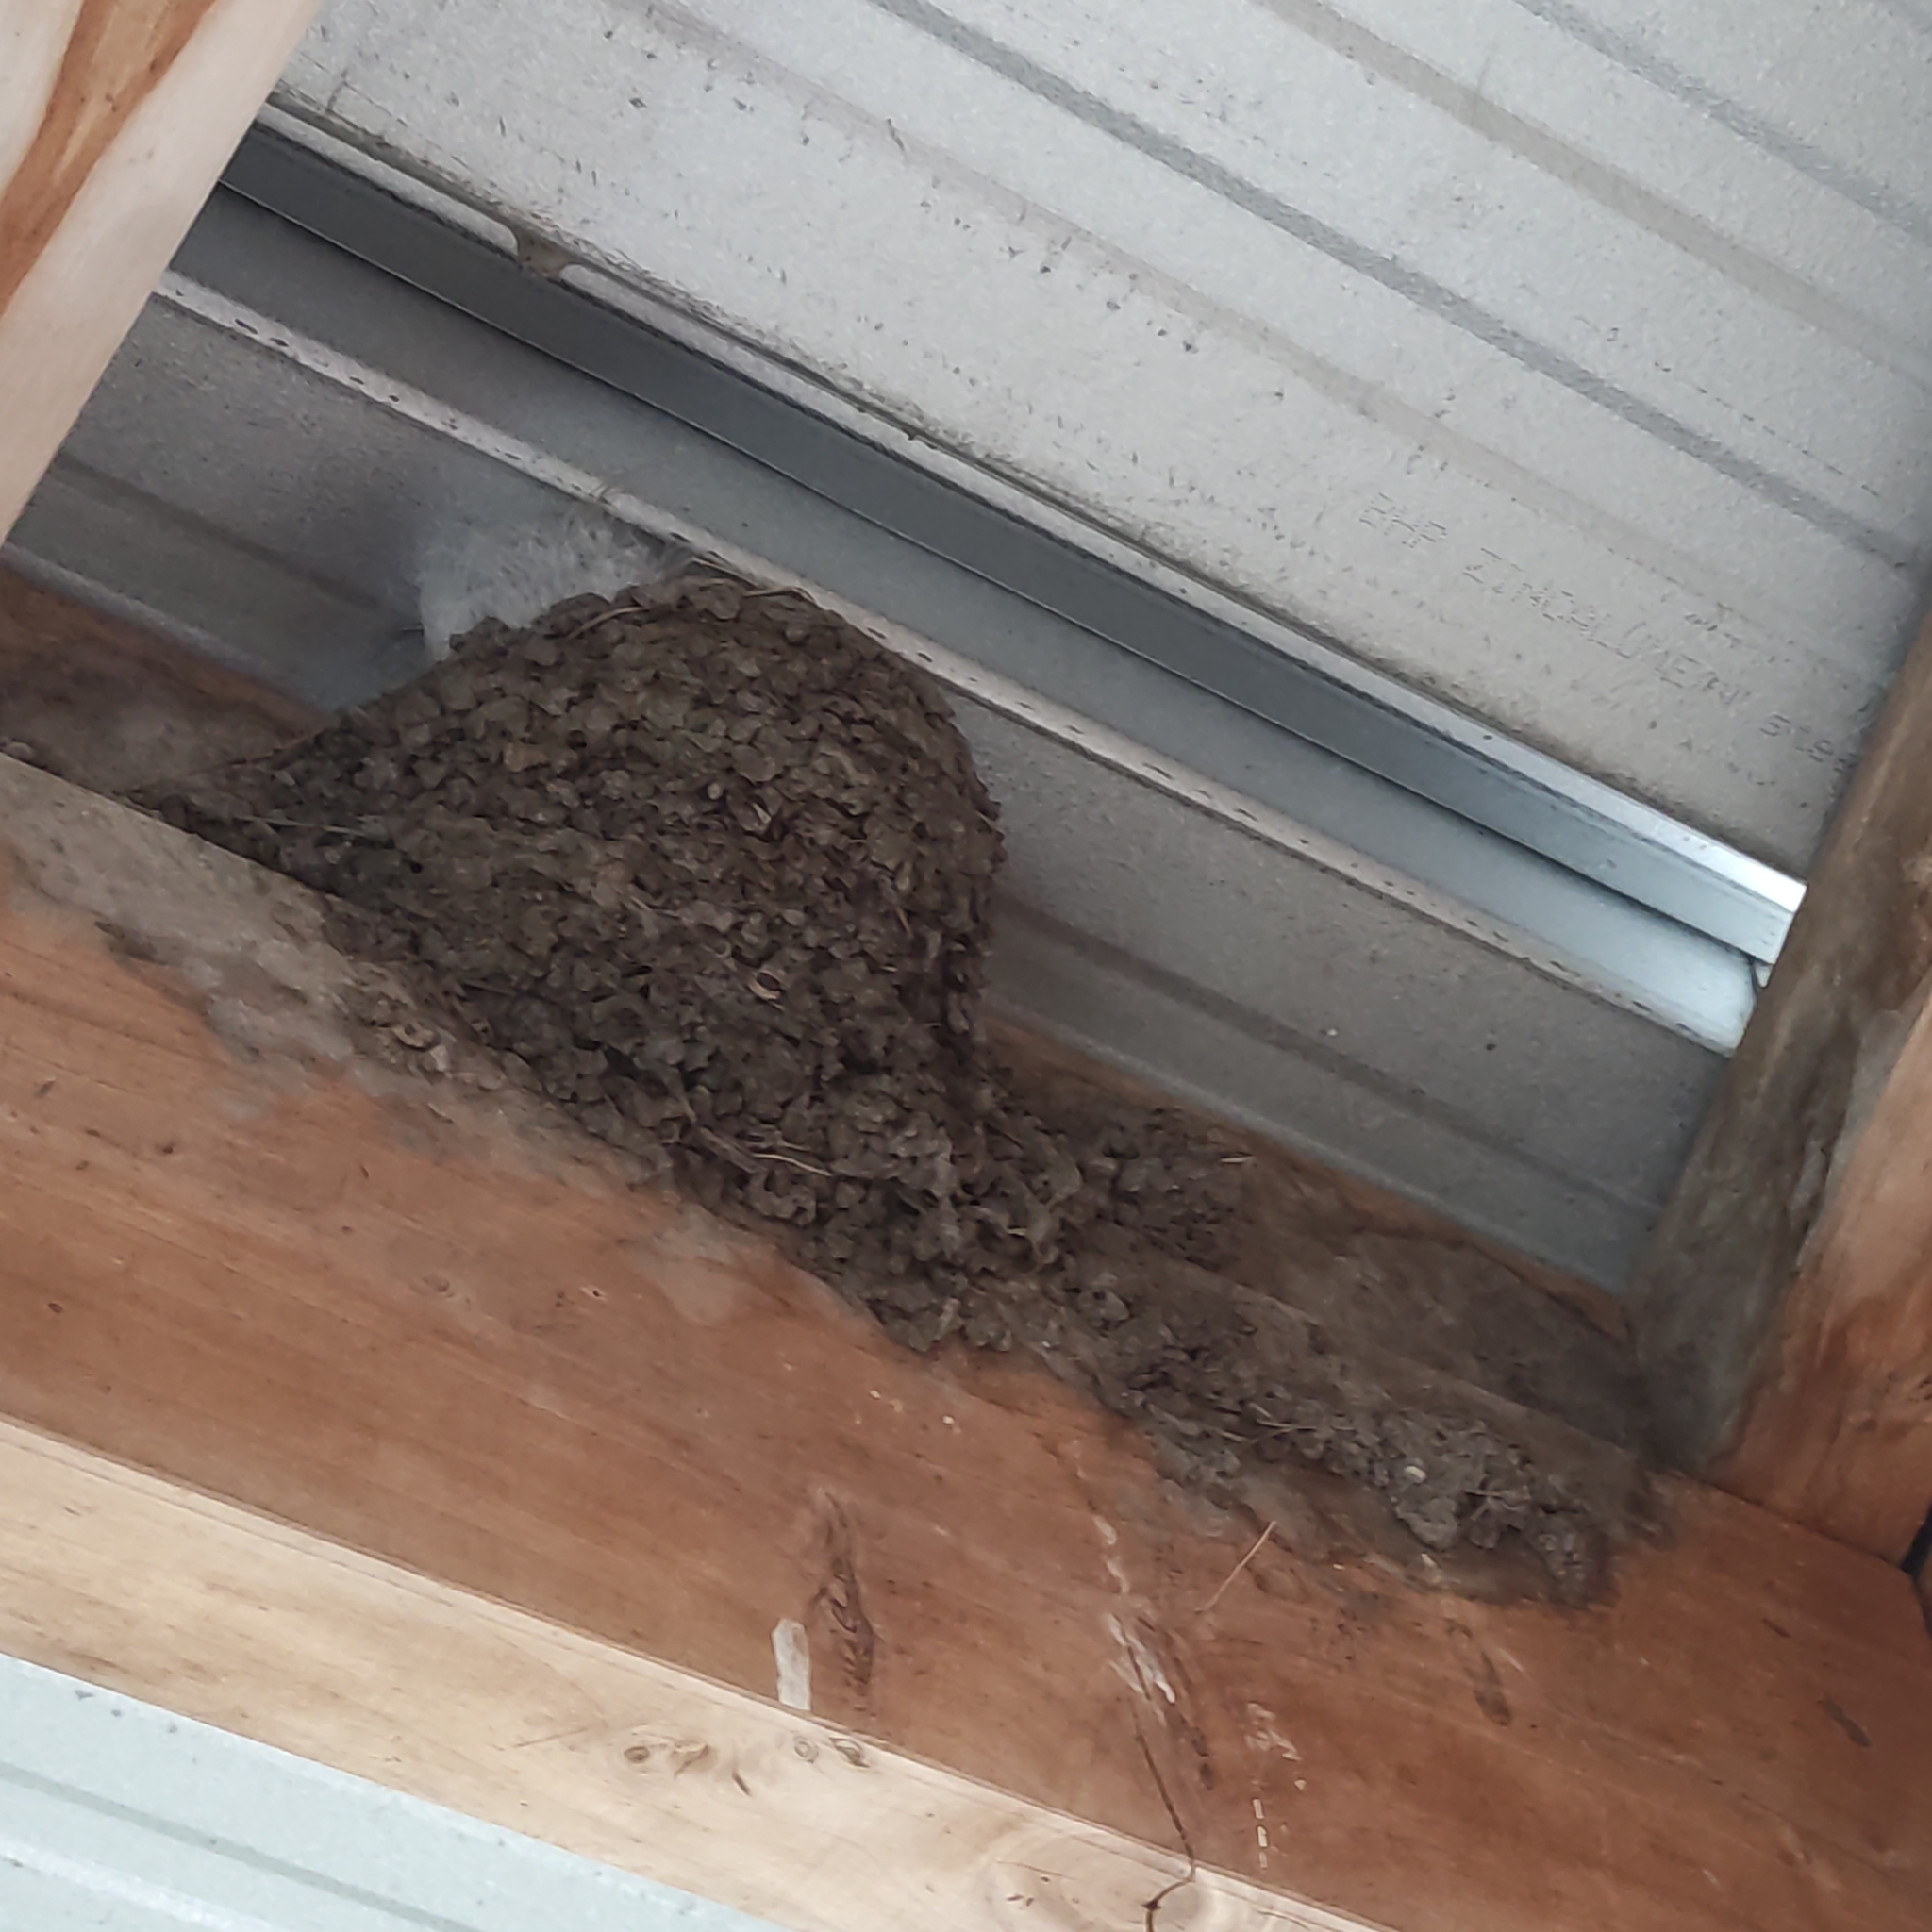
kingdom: Animalia
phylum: Chordata
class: Aves
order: Passeriformes
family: Hirundinidae
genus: Hirundo
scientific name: Hirundo neoxena
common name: Welcome swallow
